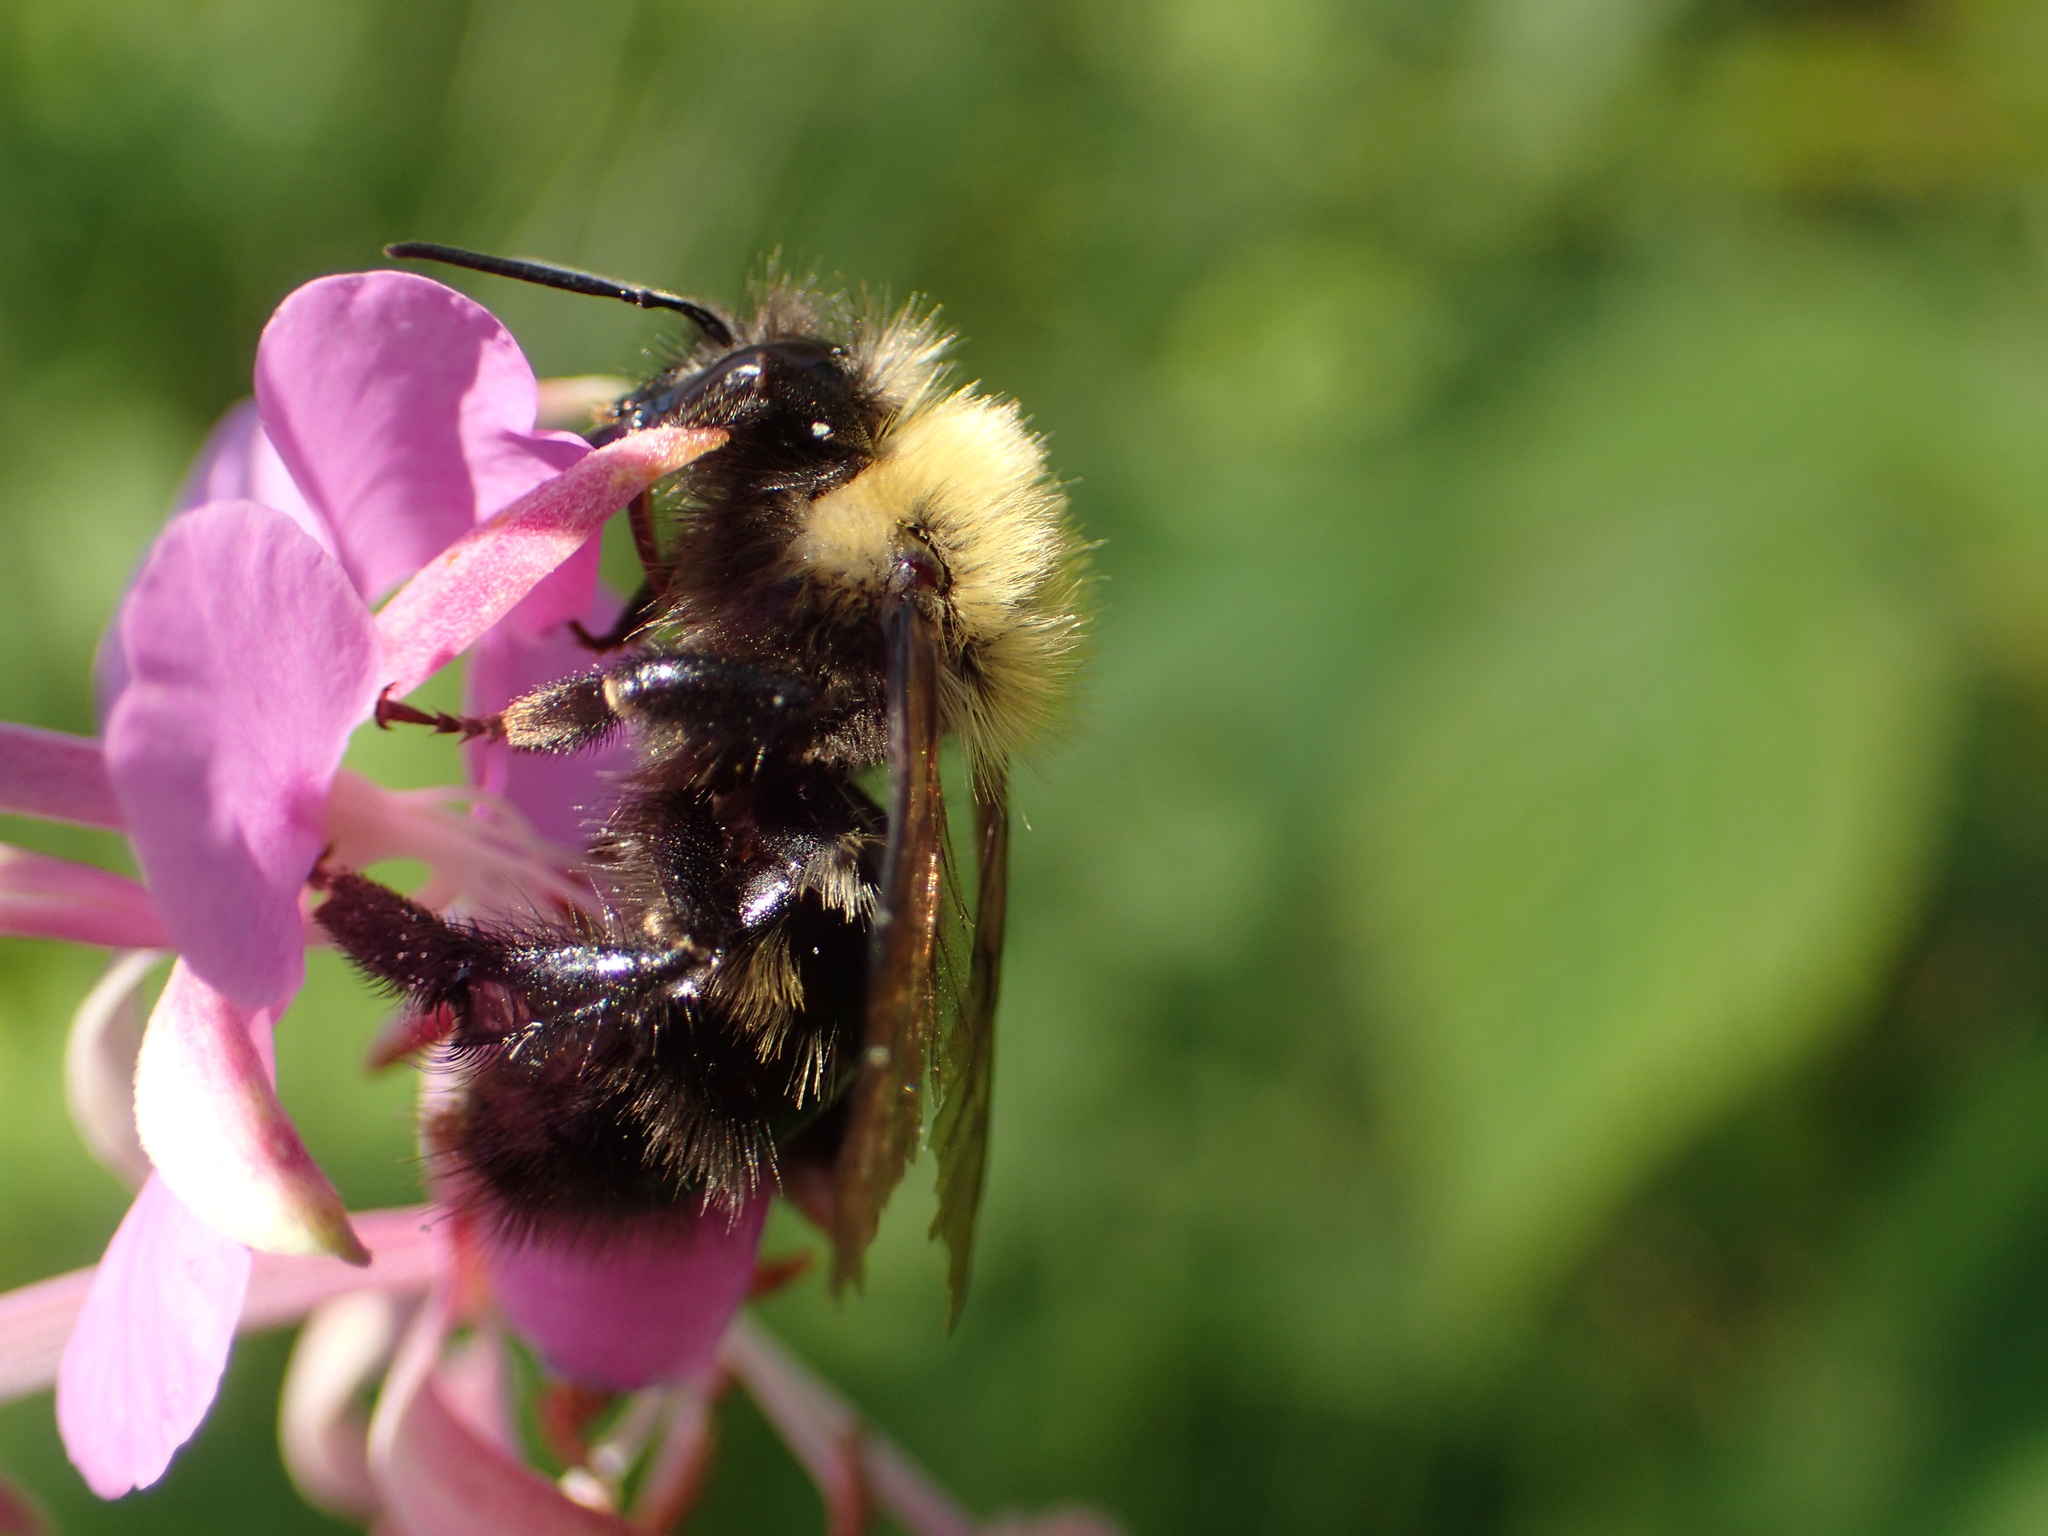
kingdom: Animalia
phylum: Arthropoda
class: Insecta
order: Hymenoptera
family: Apidae
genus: Bombus
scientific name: Bombus perplexus
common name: Confusing bumble bee
